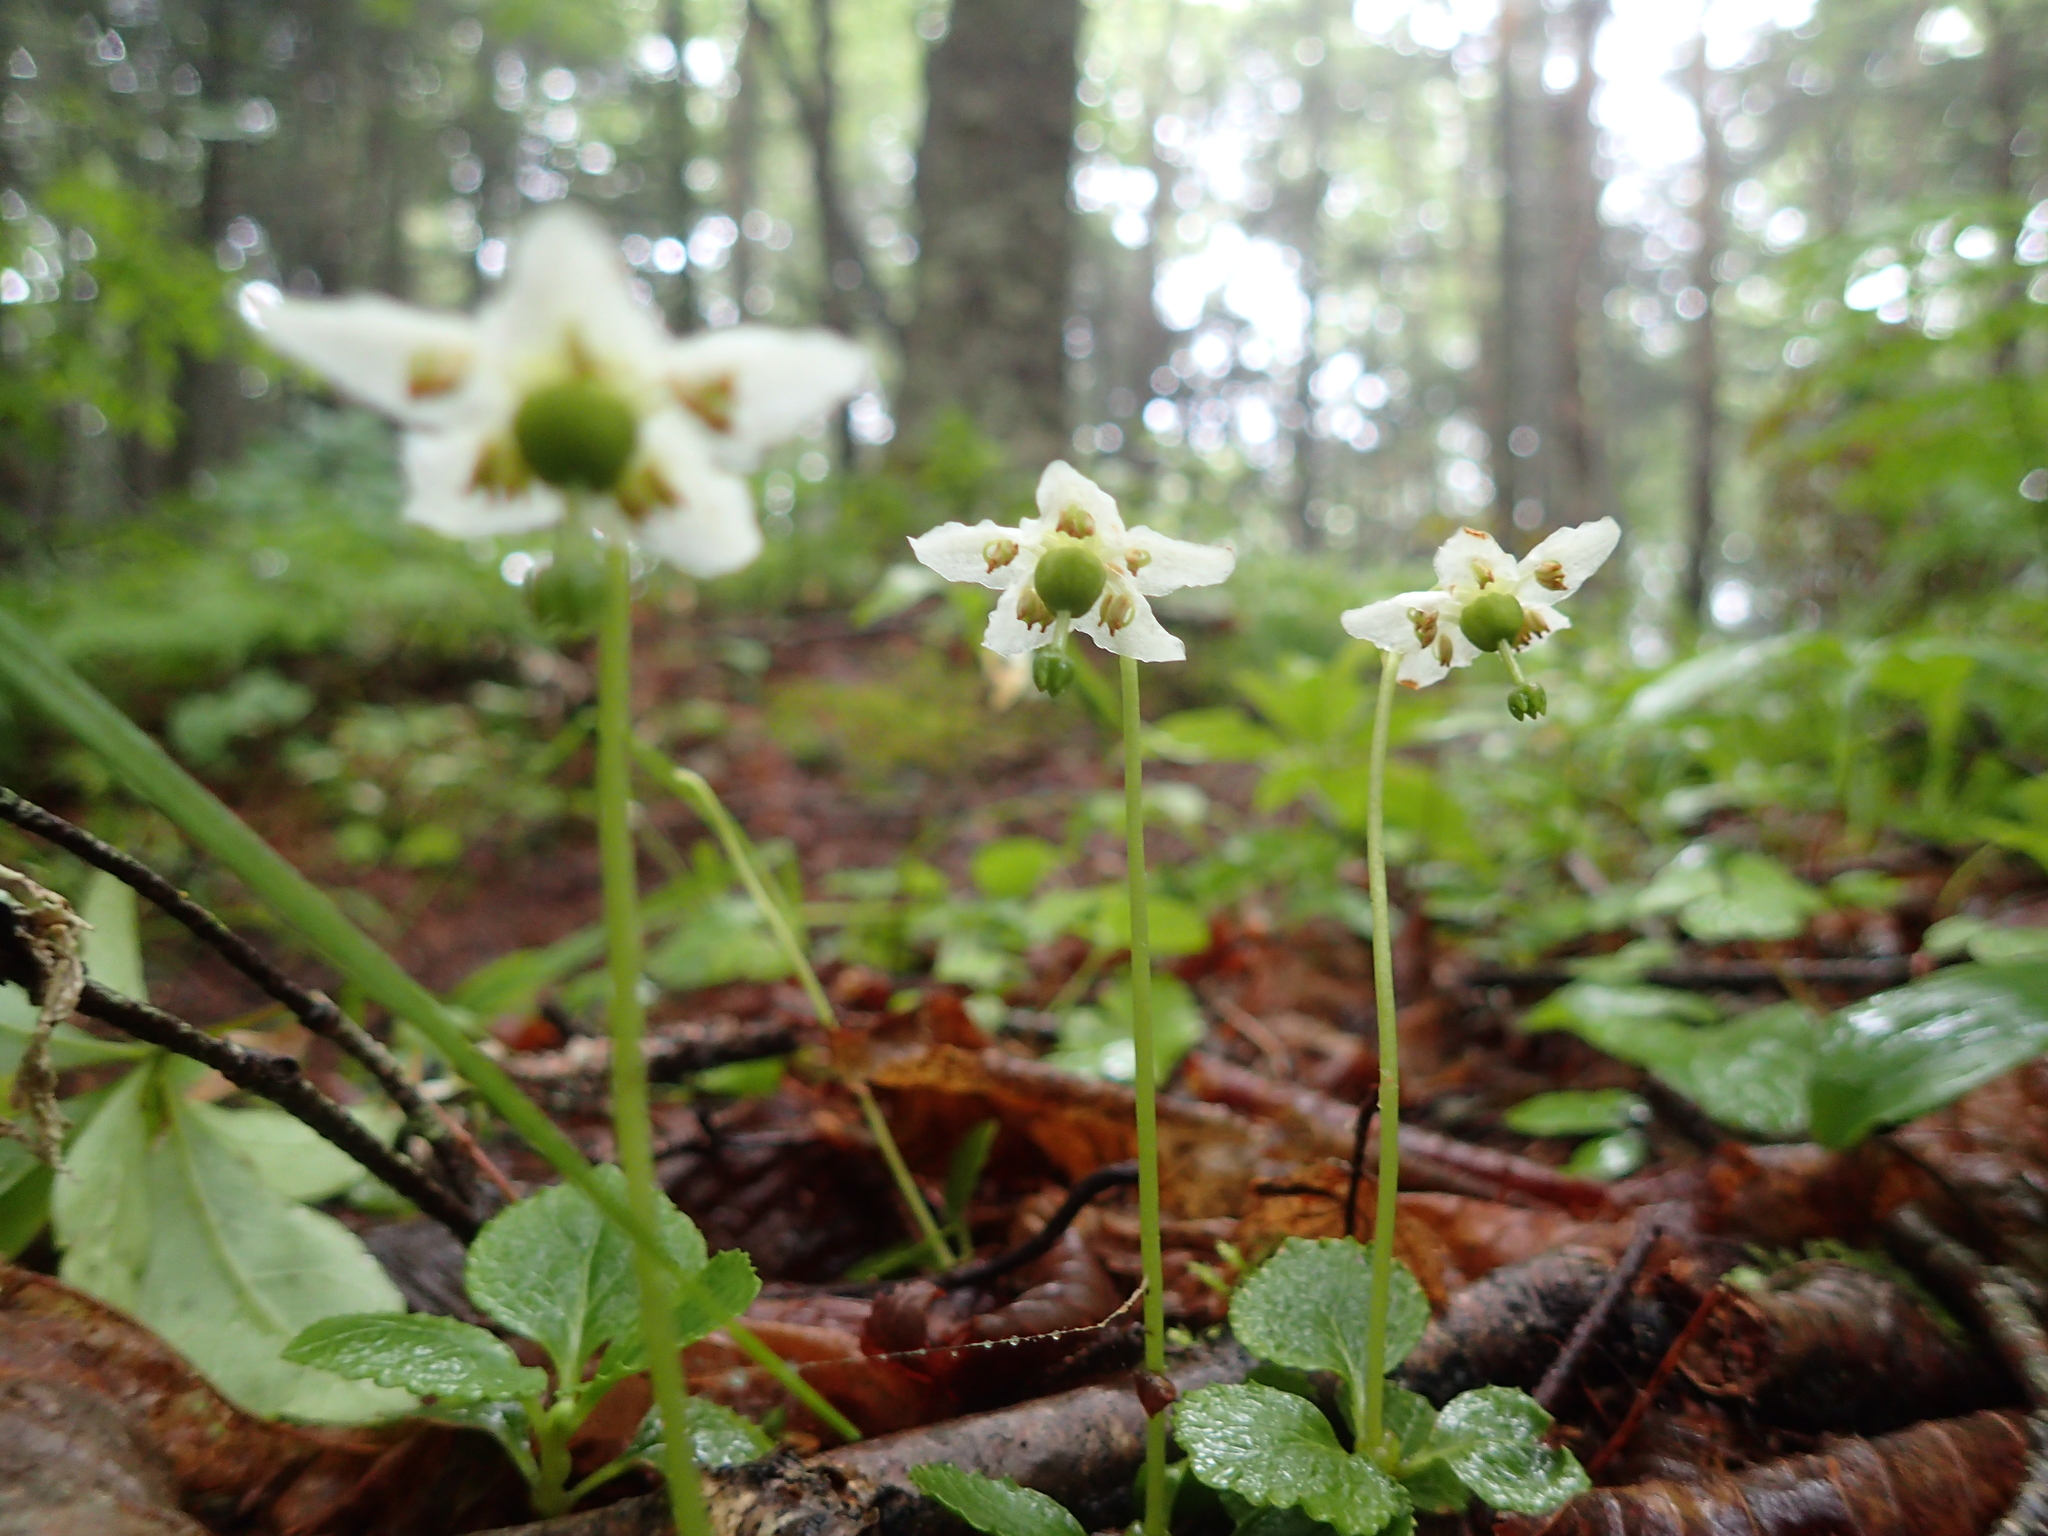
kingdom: Plantae
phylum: Tracheophyta
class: Magnoliopsida
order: Ericales
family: Ericaceae
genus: Moneses
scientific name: Moneses uniflora
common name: One-flowered wintergreen
